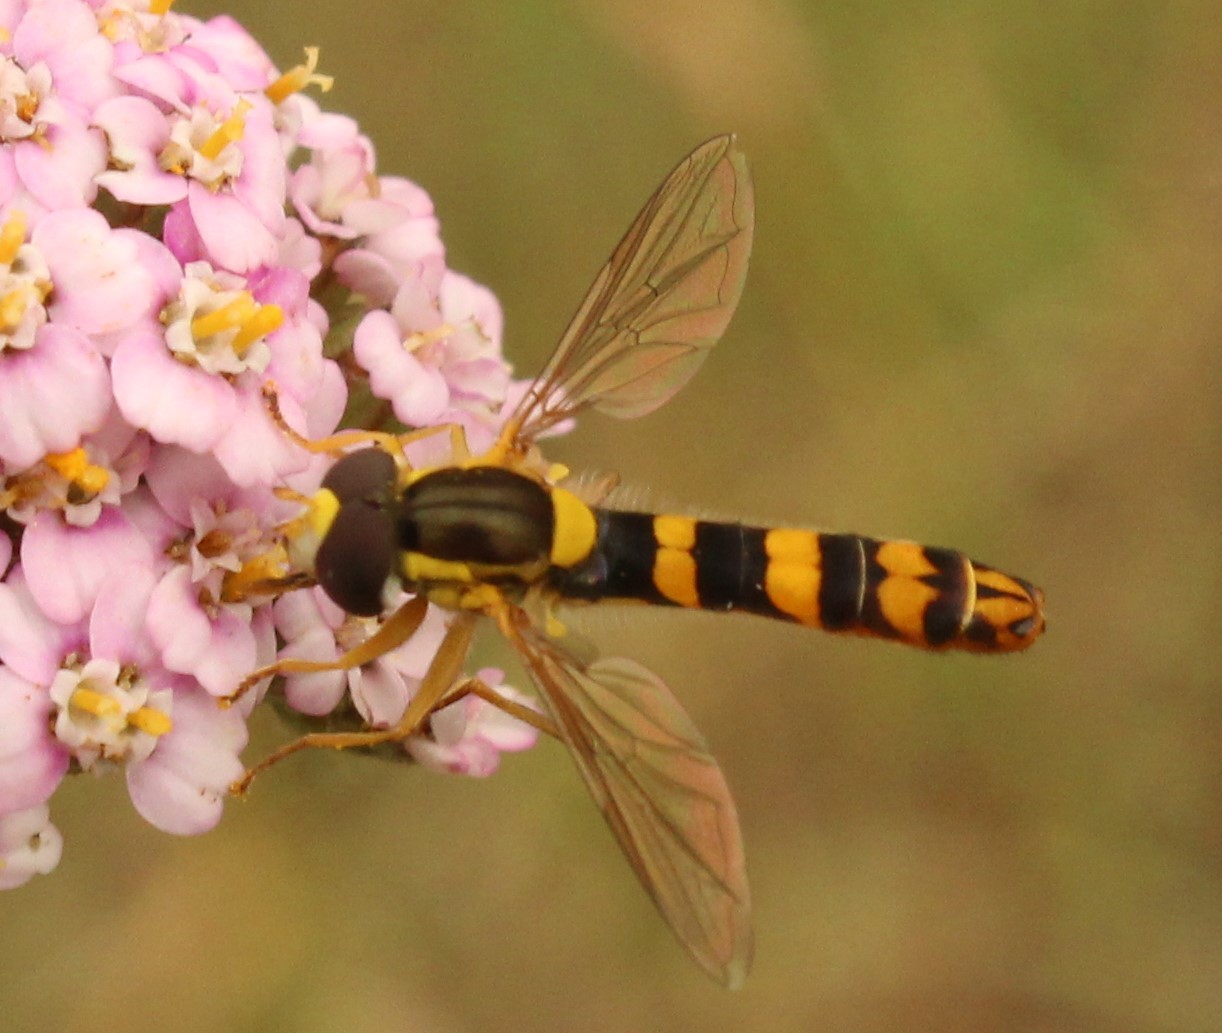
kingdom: Animalia
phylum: Arthropoda
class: Insecta
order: Diptera
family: Syrphidae
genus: Sphaerophoria
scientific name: Sphaerophoria scripta
